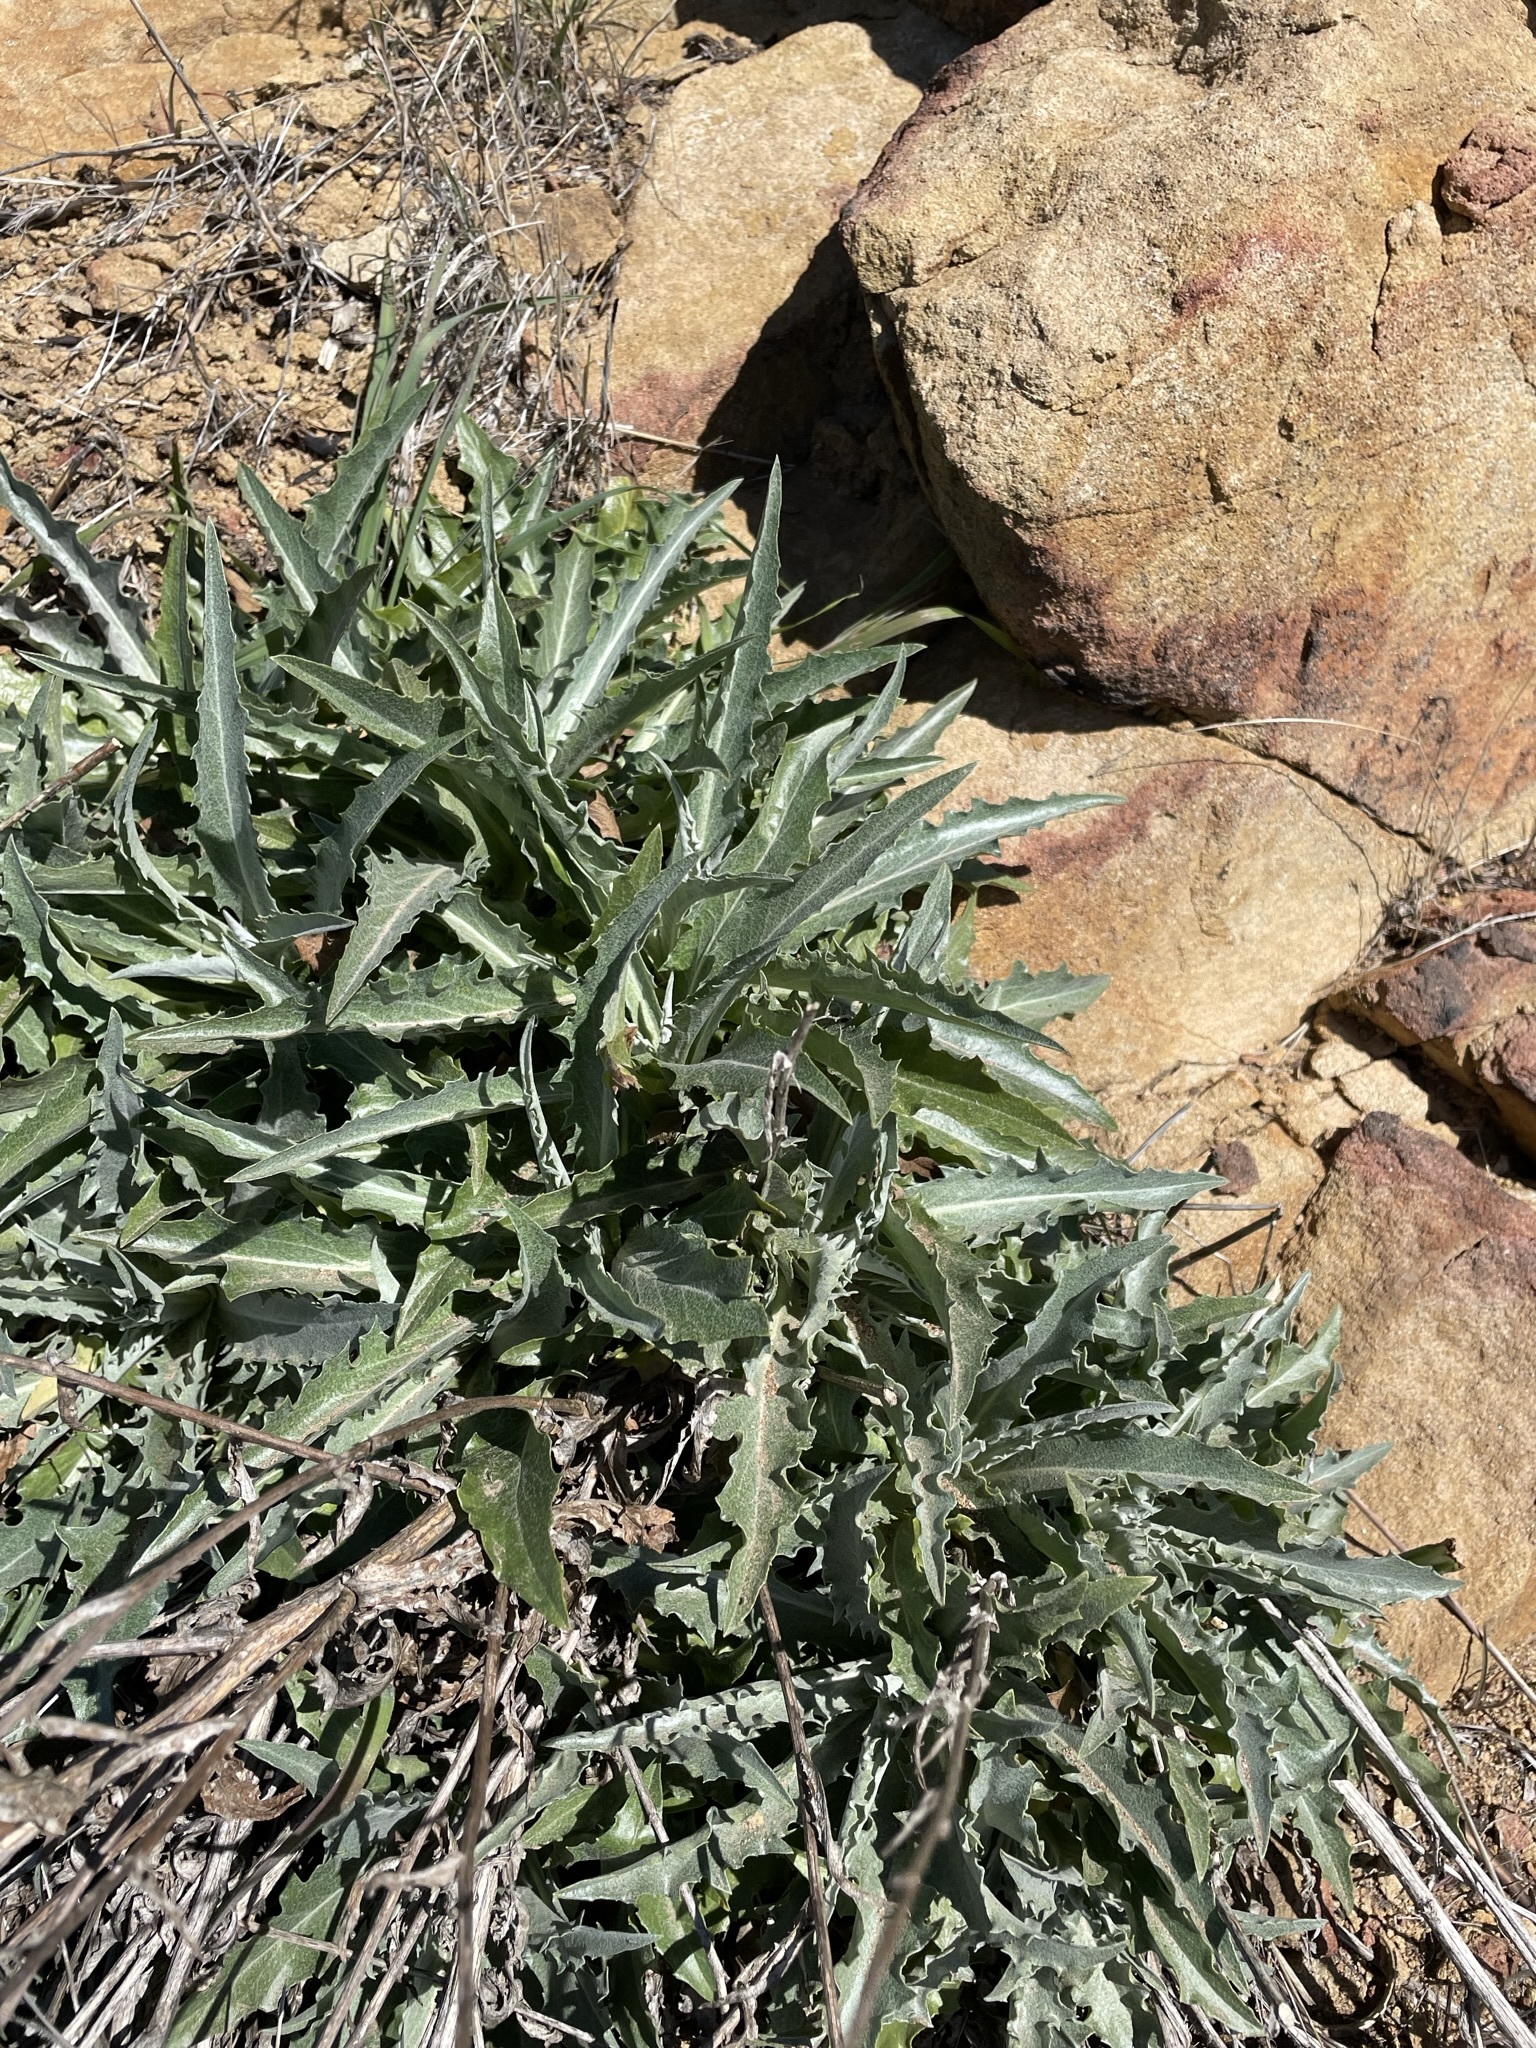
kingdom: Plantae
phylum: Tracheophyta
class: Magnoliopsida
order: Asterales
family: Asteraceae
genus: Stephanomeria
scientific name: Stephanomeria cichoriacea
